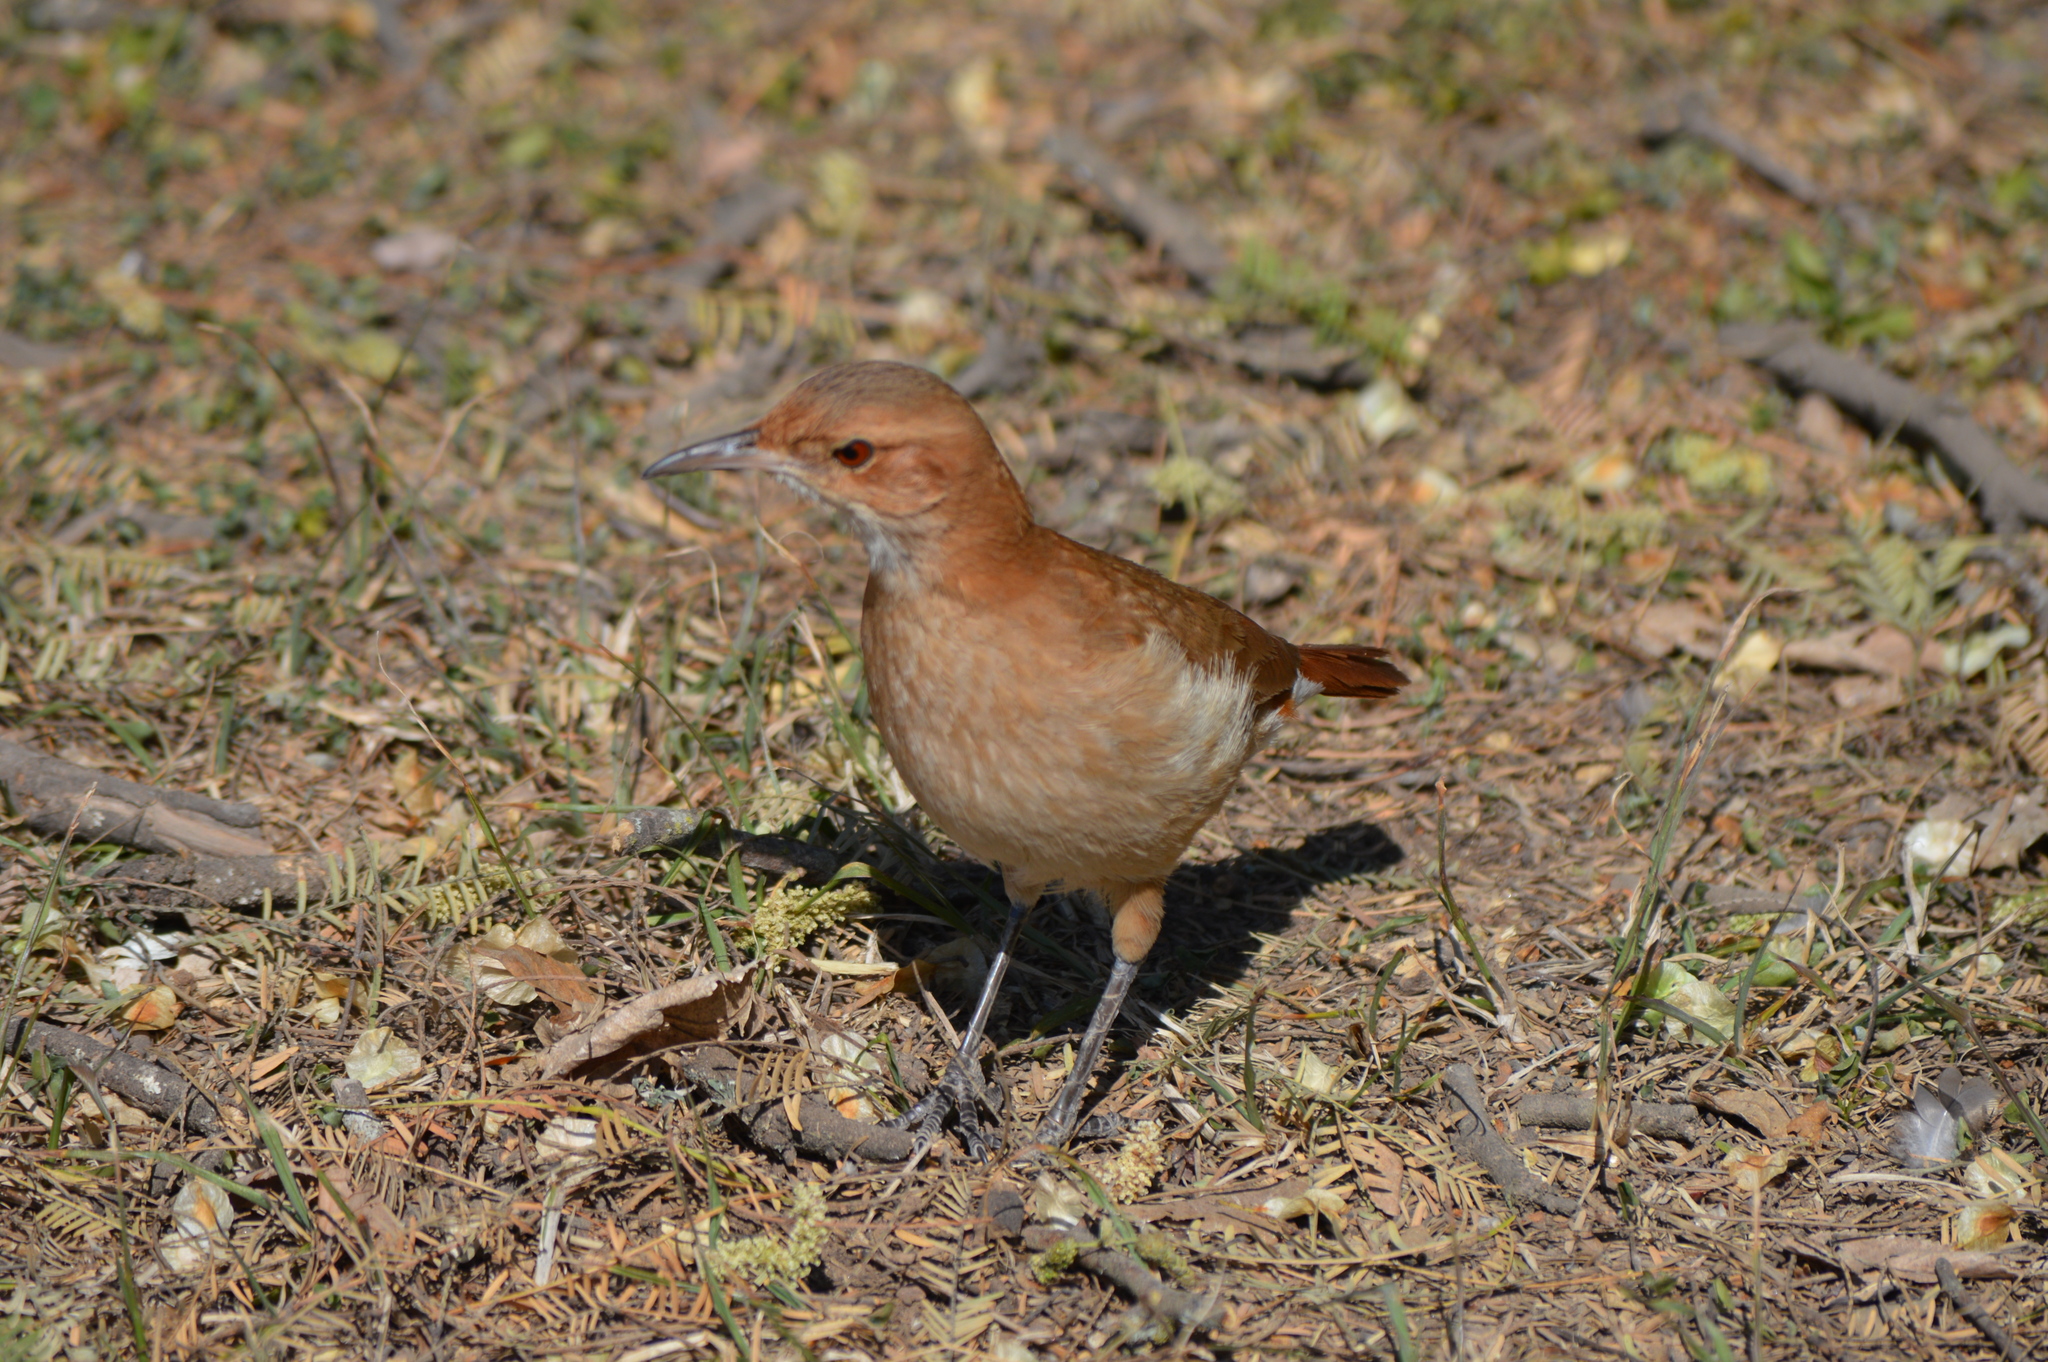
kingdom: Animalia
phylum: Chordata
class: Aves
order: Passeriformes
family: Furnariidae
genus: Furnarius
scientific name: Furnarius rufus
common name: Rufous hornero
